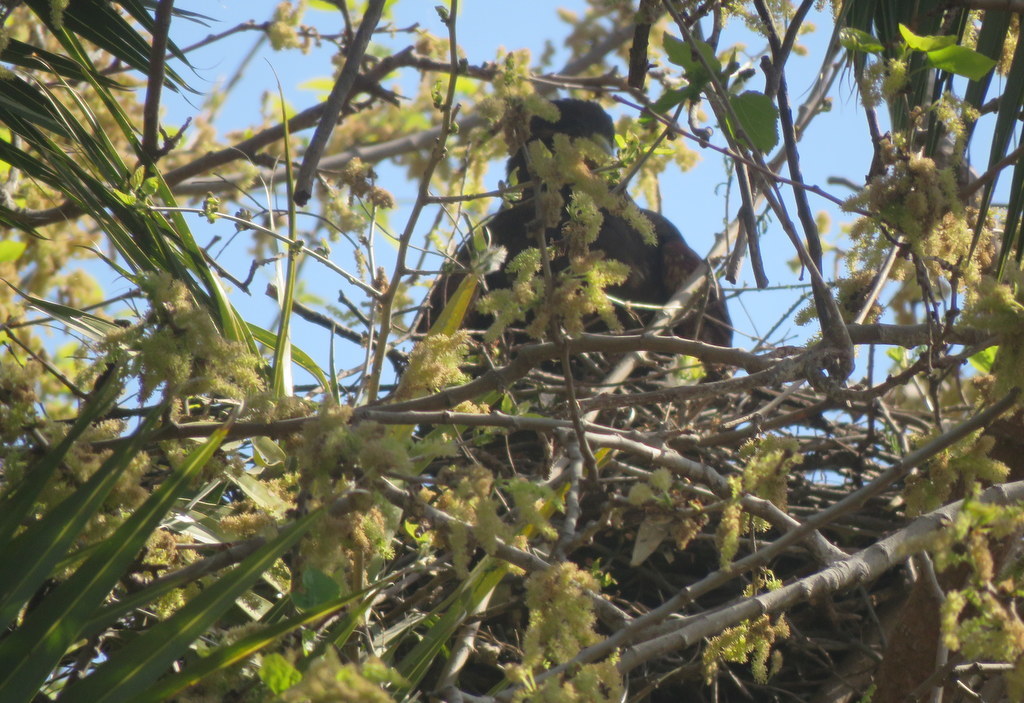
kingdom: Animalia
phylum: Chordata
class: Aves
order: Accipitriformes
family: Accipitridae
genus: Parabuteo
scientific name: Parabuteo unicinctus
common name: Harris's hawk
